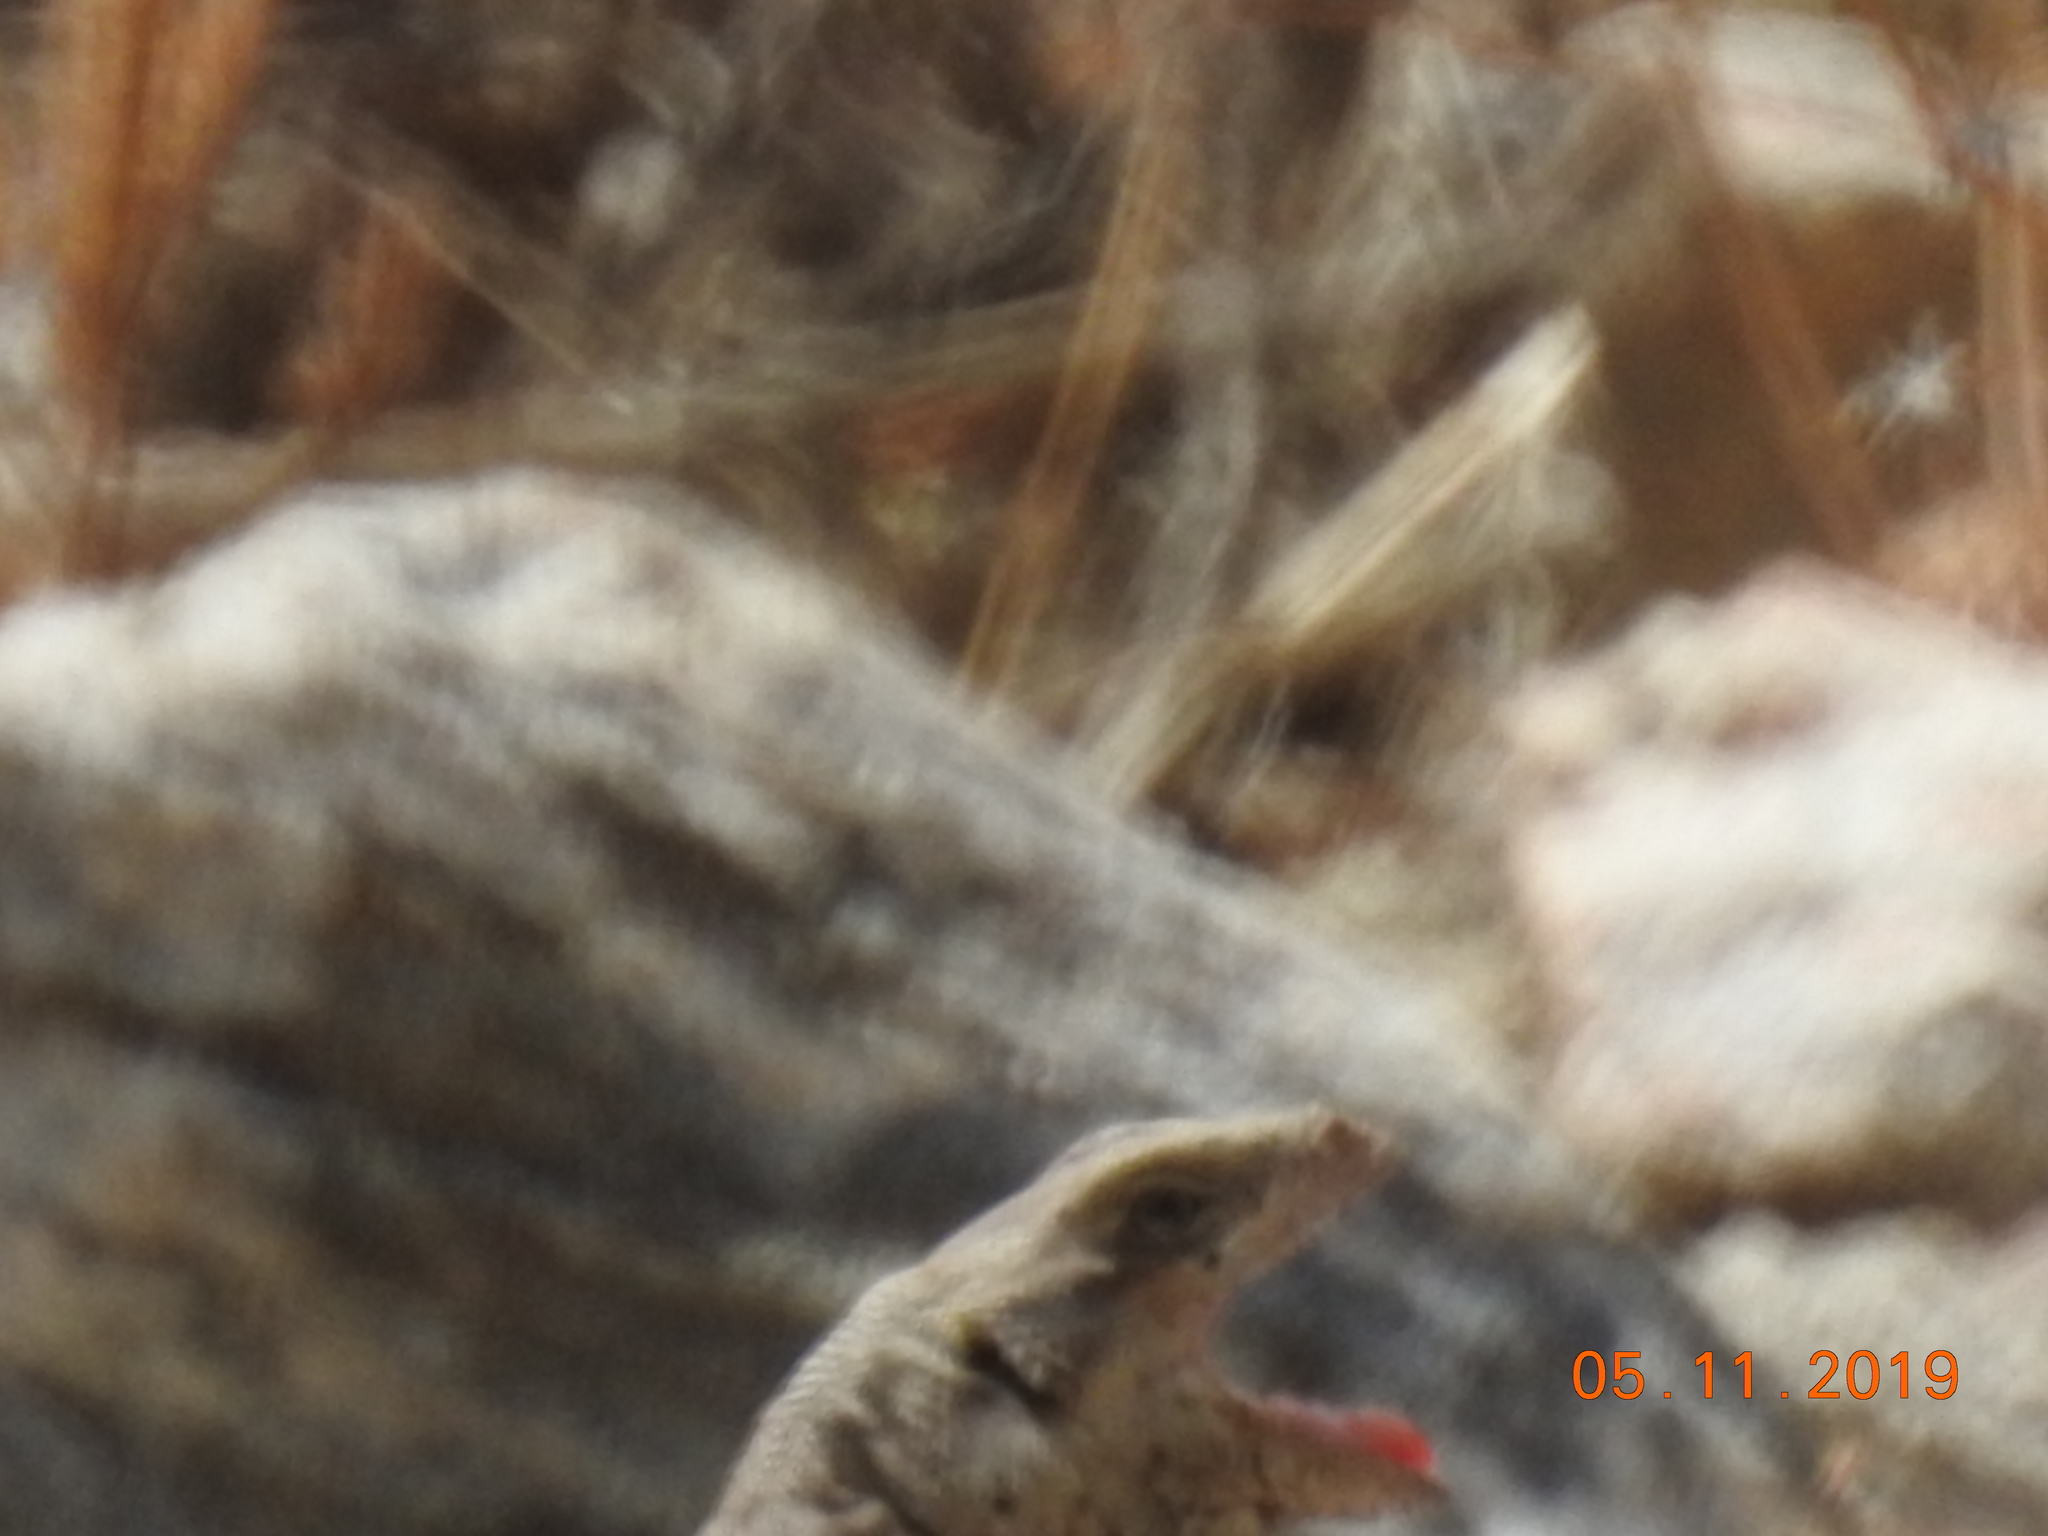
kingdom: Animalia
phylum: Chordata
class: Squamata
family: Iguanidae
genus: Sauromalus
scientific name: Sauromalus ater
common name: Northern chuckwalla
